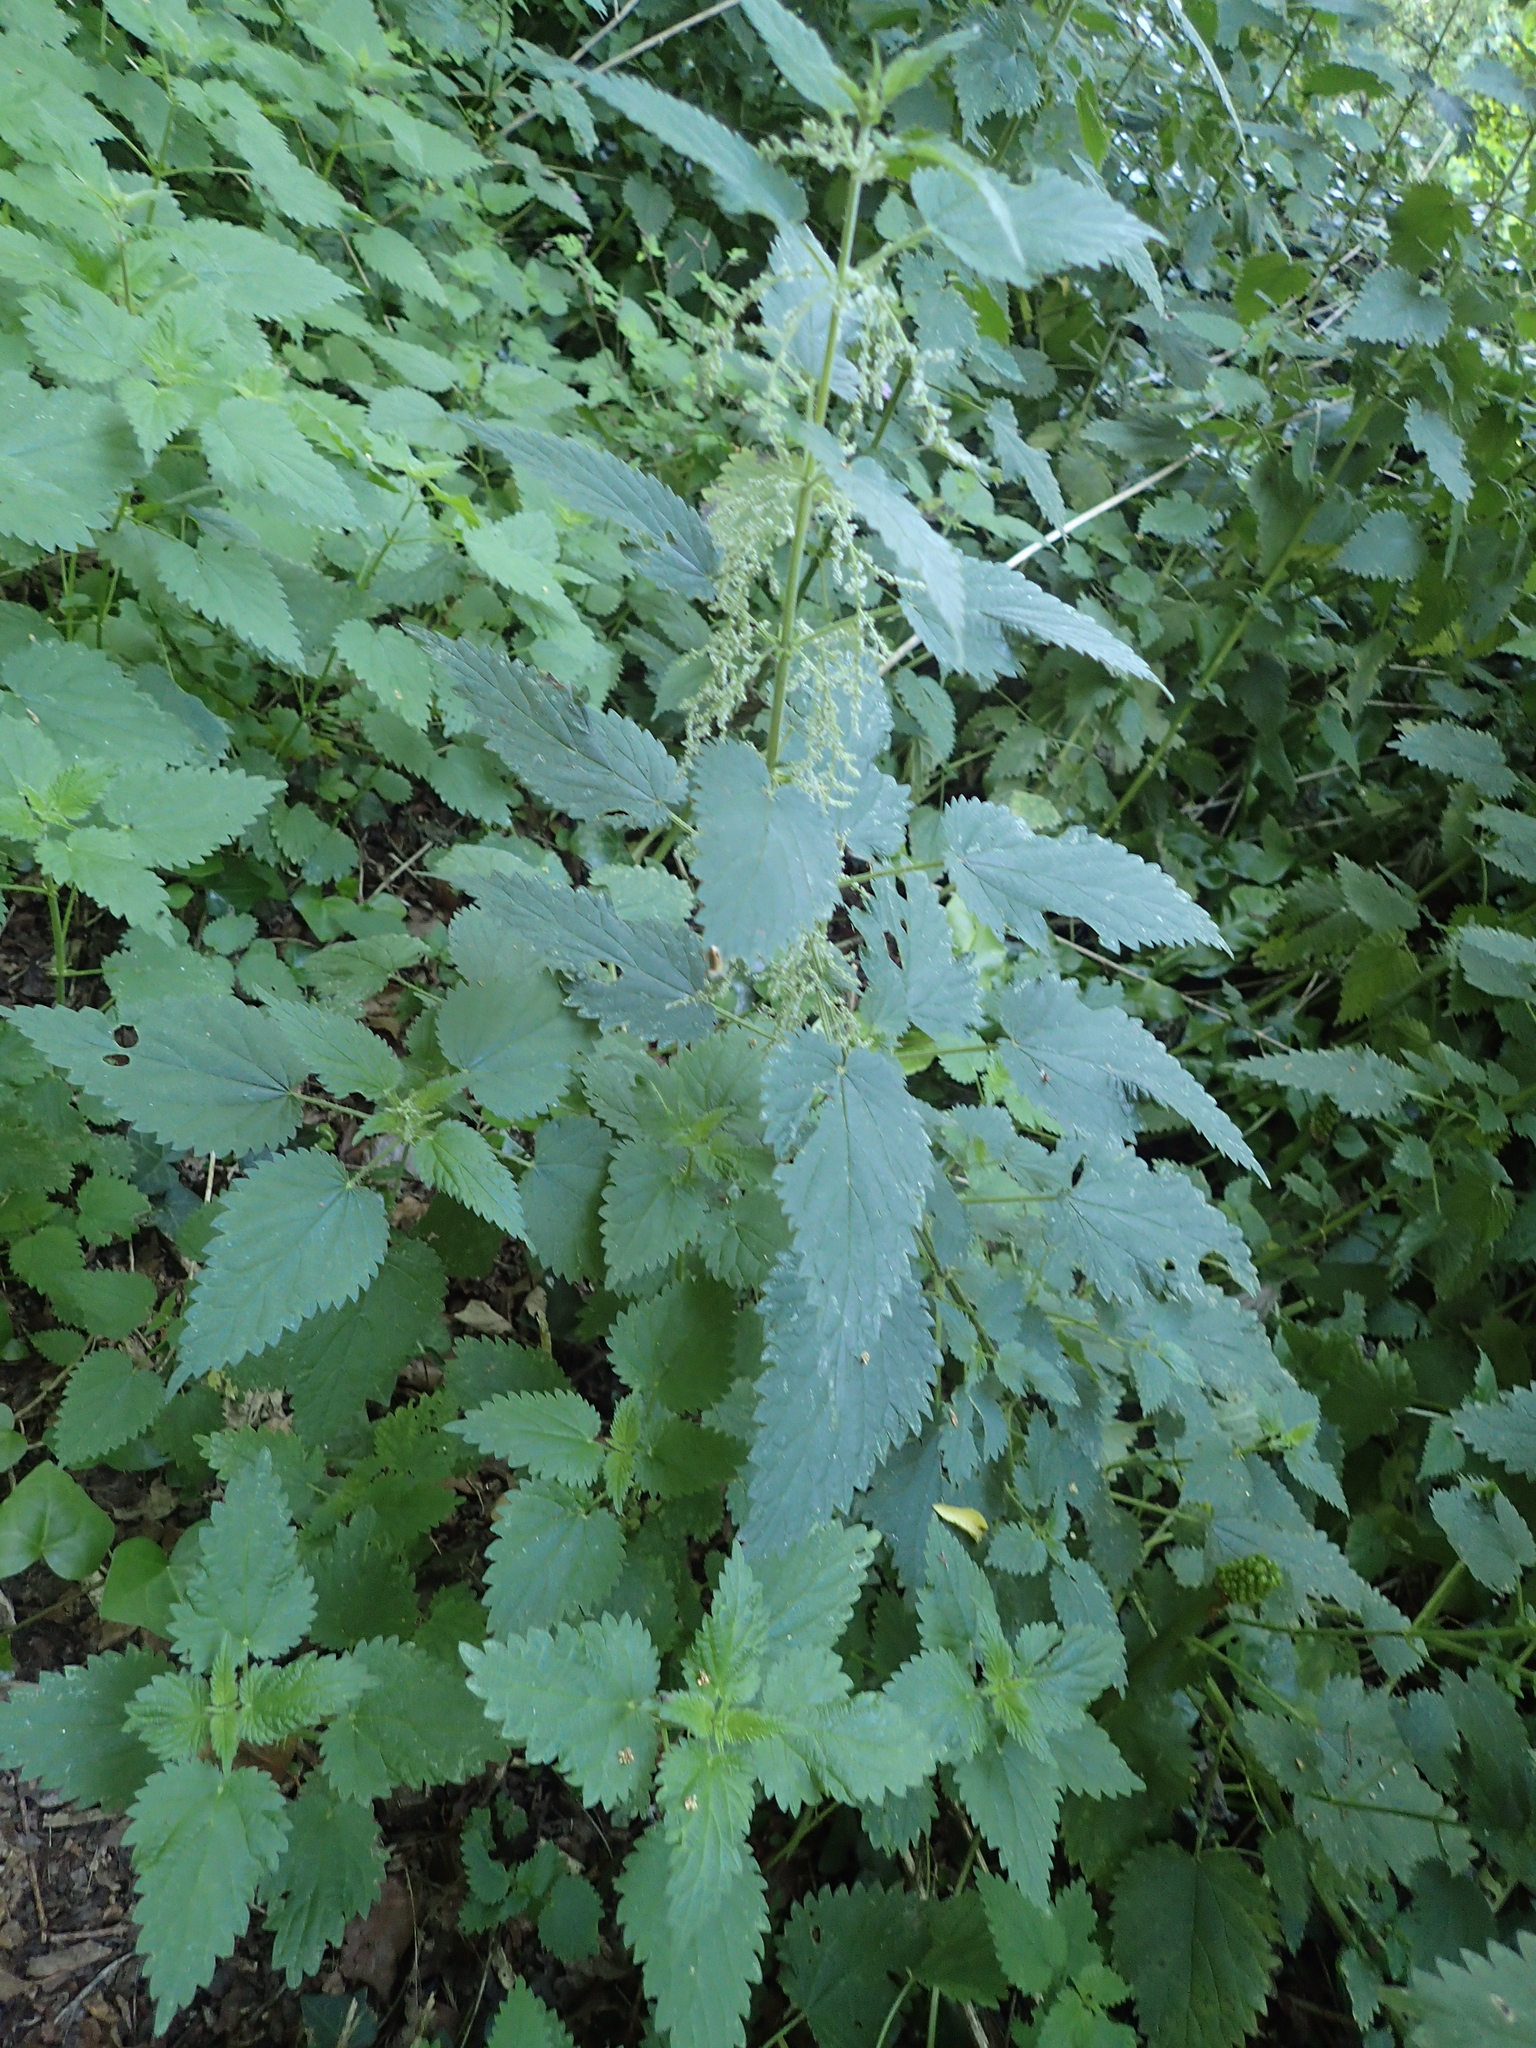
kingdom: Plantae
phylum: Tracheophyta
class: Magnoliopsida
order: Rosales
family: Urticaceae
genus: Urtica
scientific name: Urtica dioica
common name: Common nettle
